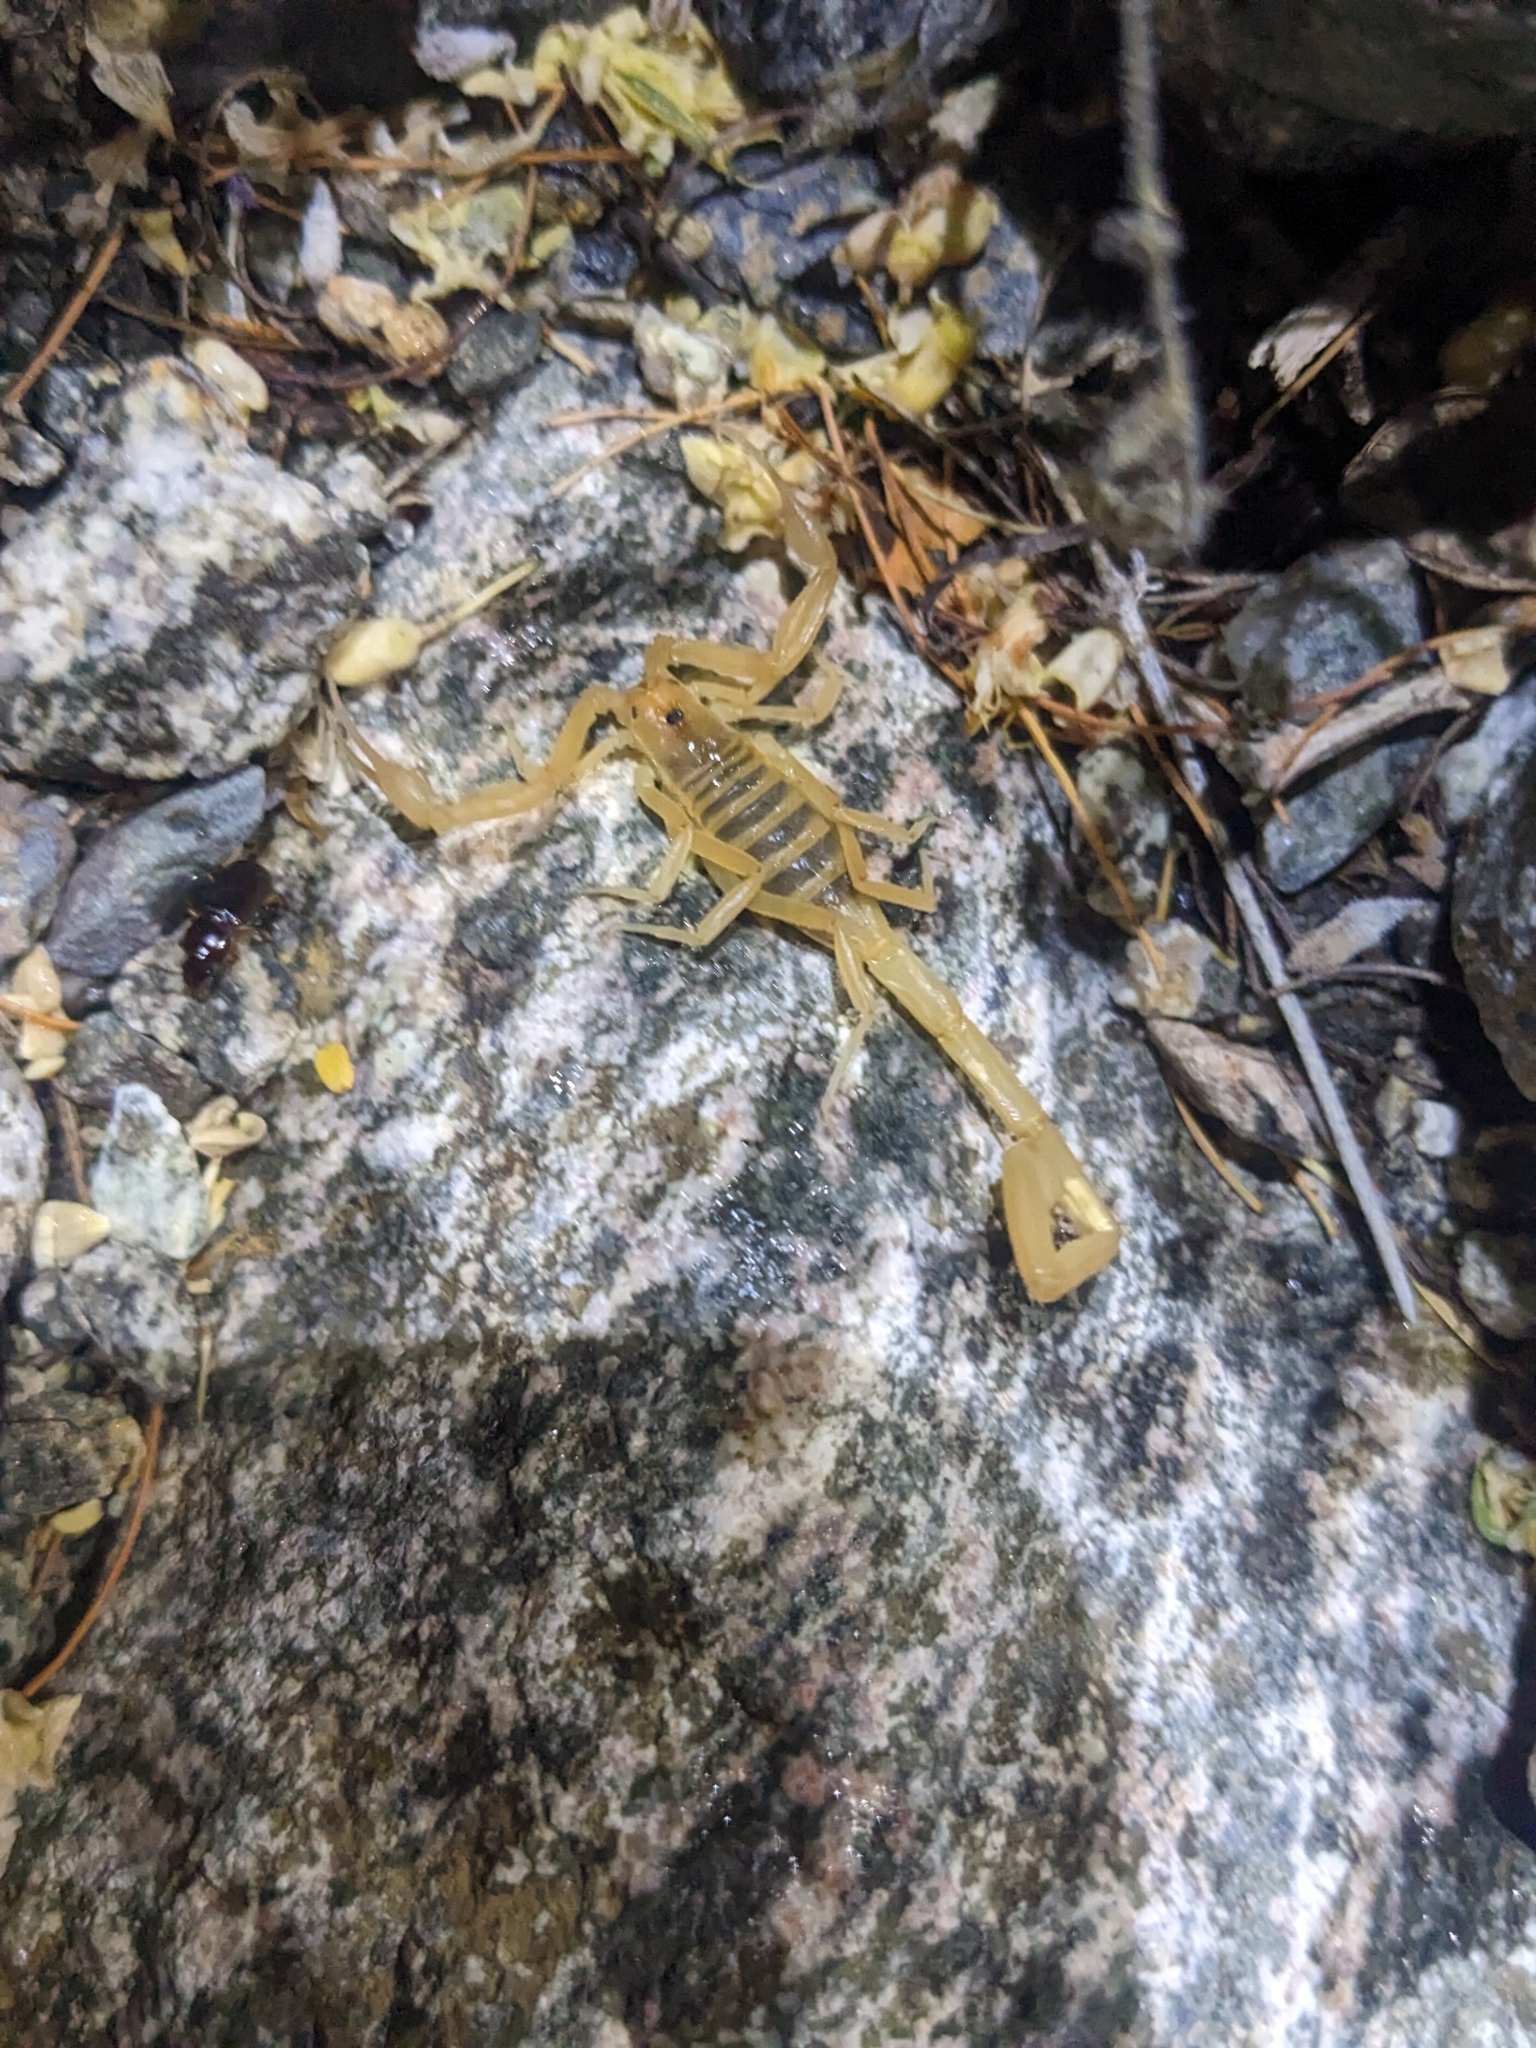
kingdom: Animalia
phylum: Arthropoda
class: Arachnida
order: Scorpiones
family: Buthidae
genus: Centruroides
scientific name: Centruroides sculpturatus
